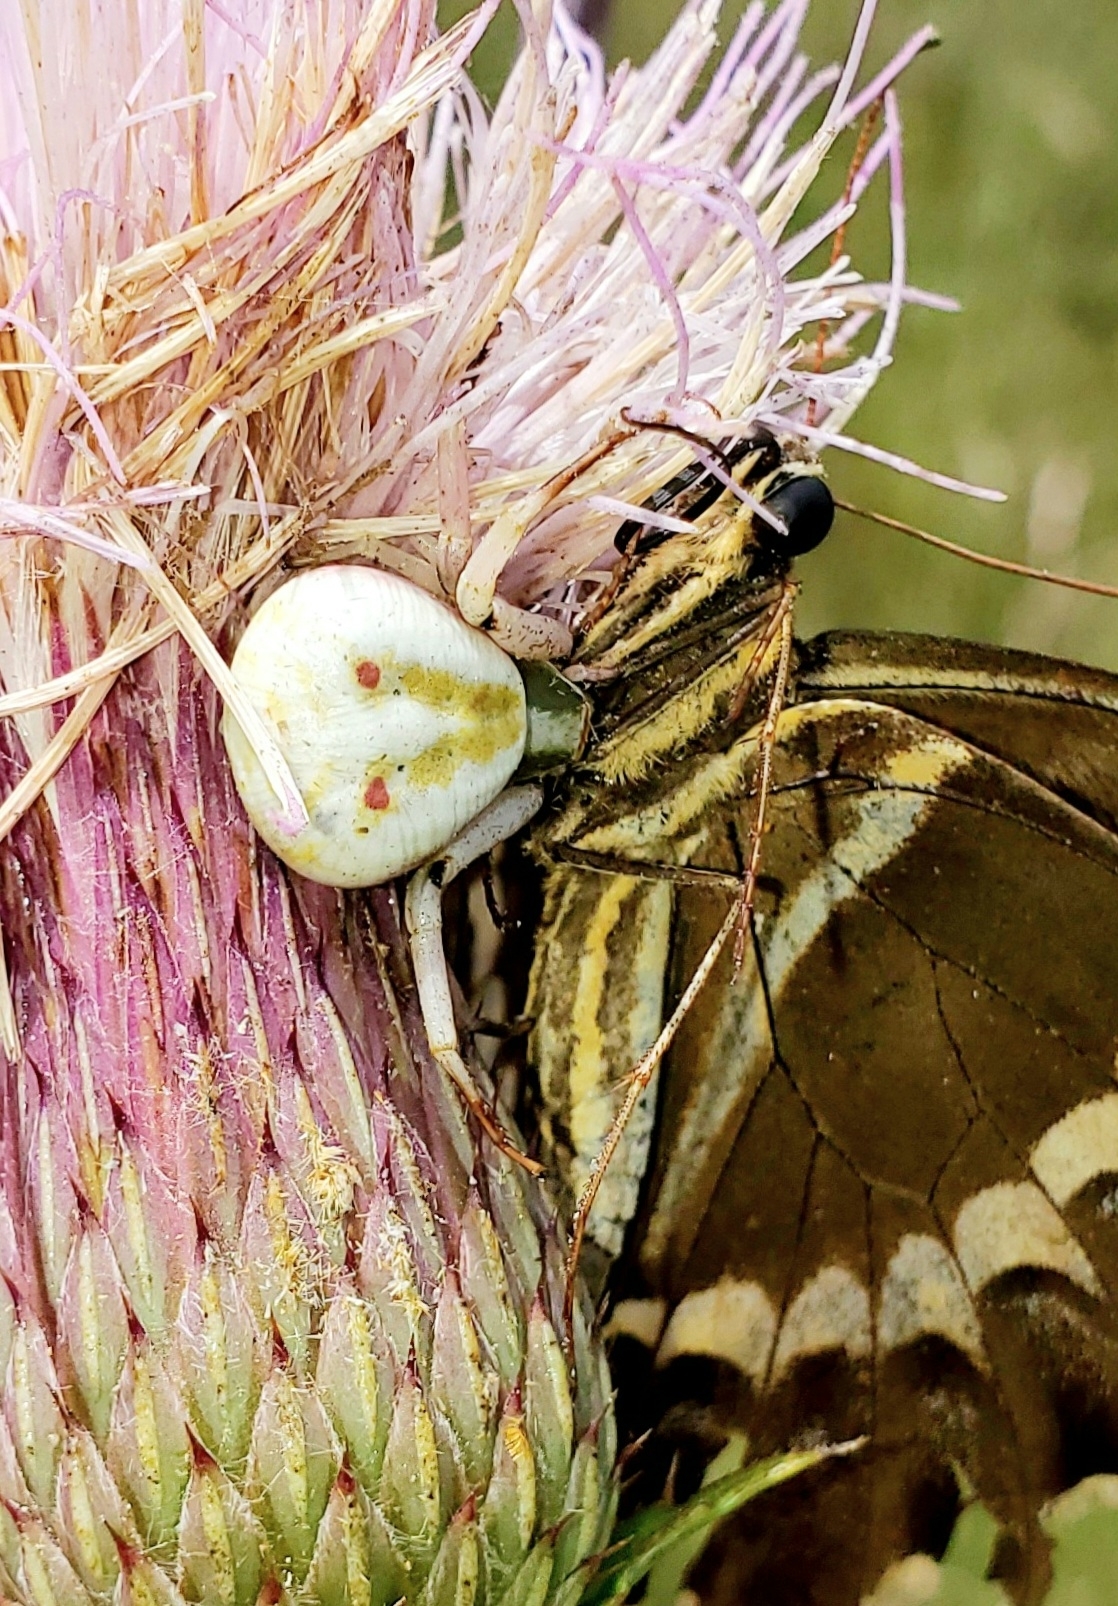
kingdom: Animalia
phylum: Arthropoda
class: Arachnida
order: Araneae
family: Thomisidae
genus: Misumenoides
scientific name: Misumenoides formosipes
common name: White-banded crab spider
